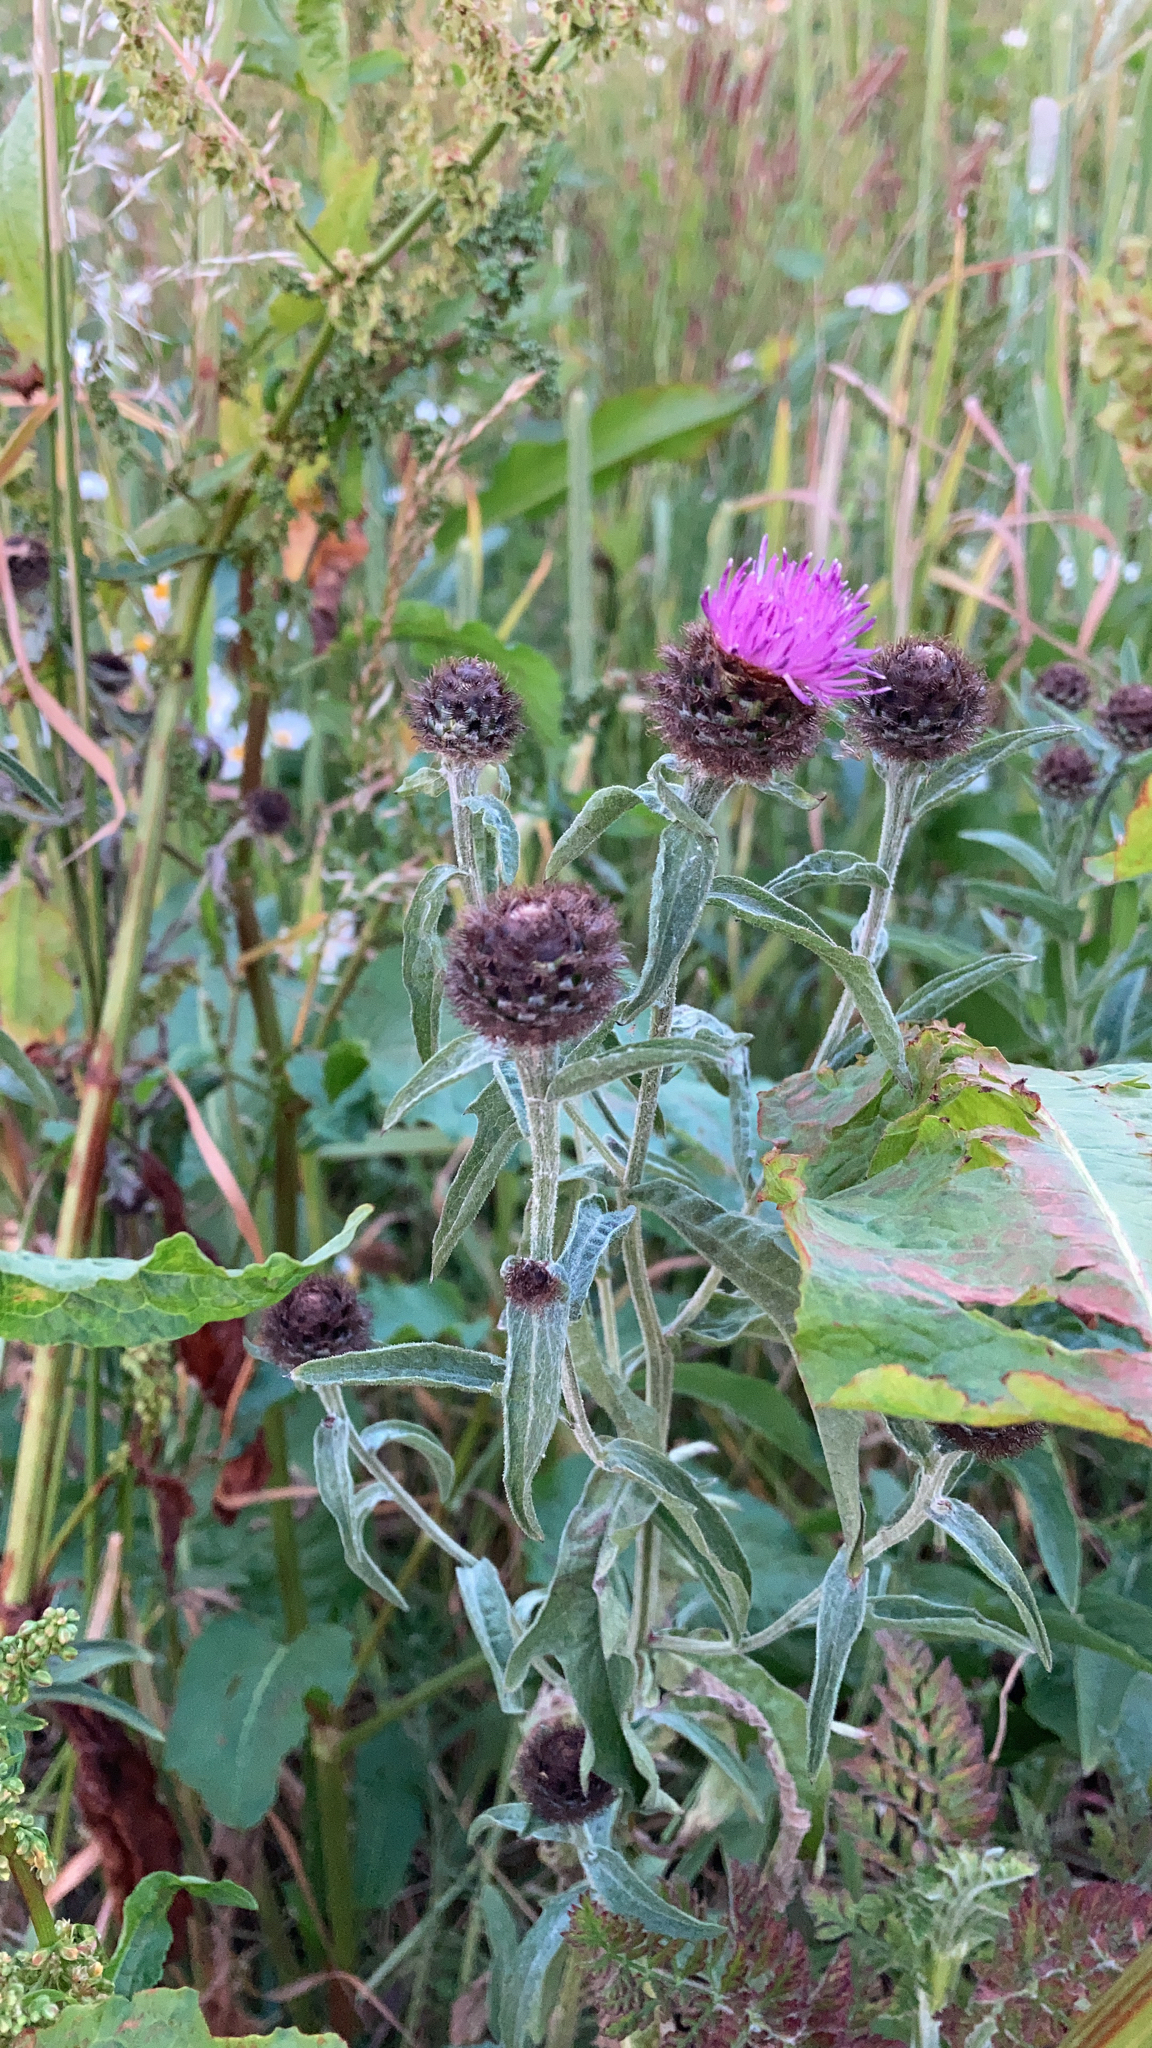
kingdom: Plantae
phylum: Tracheophyta
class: Magnoliopsida
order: Asterales
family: Asteraceae
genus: Centaurea
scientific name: Centaurea nigra
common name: Lesser knapweed
